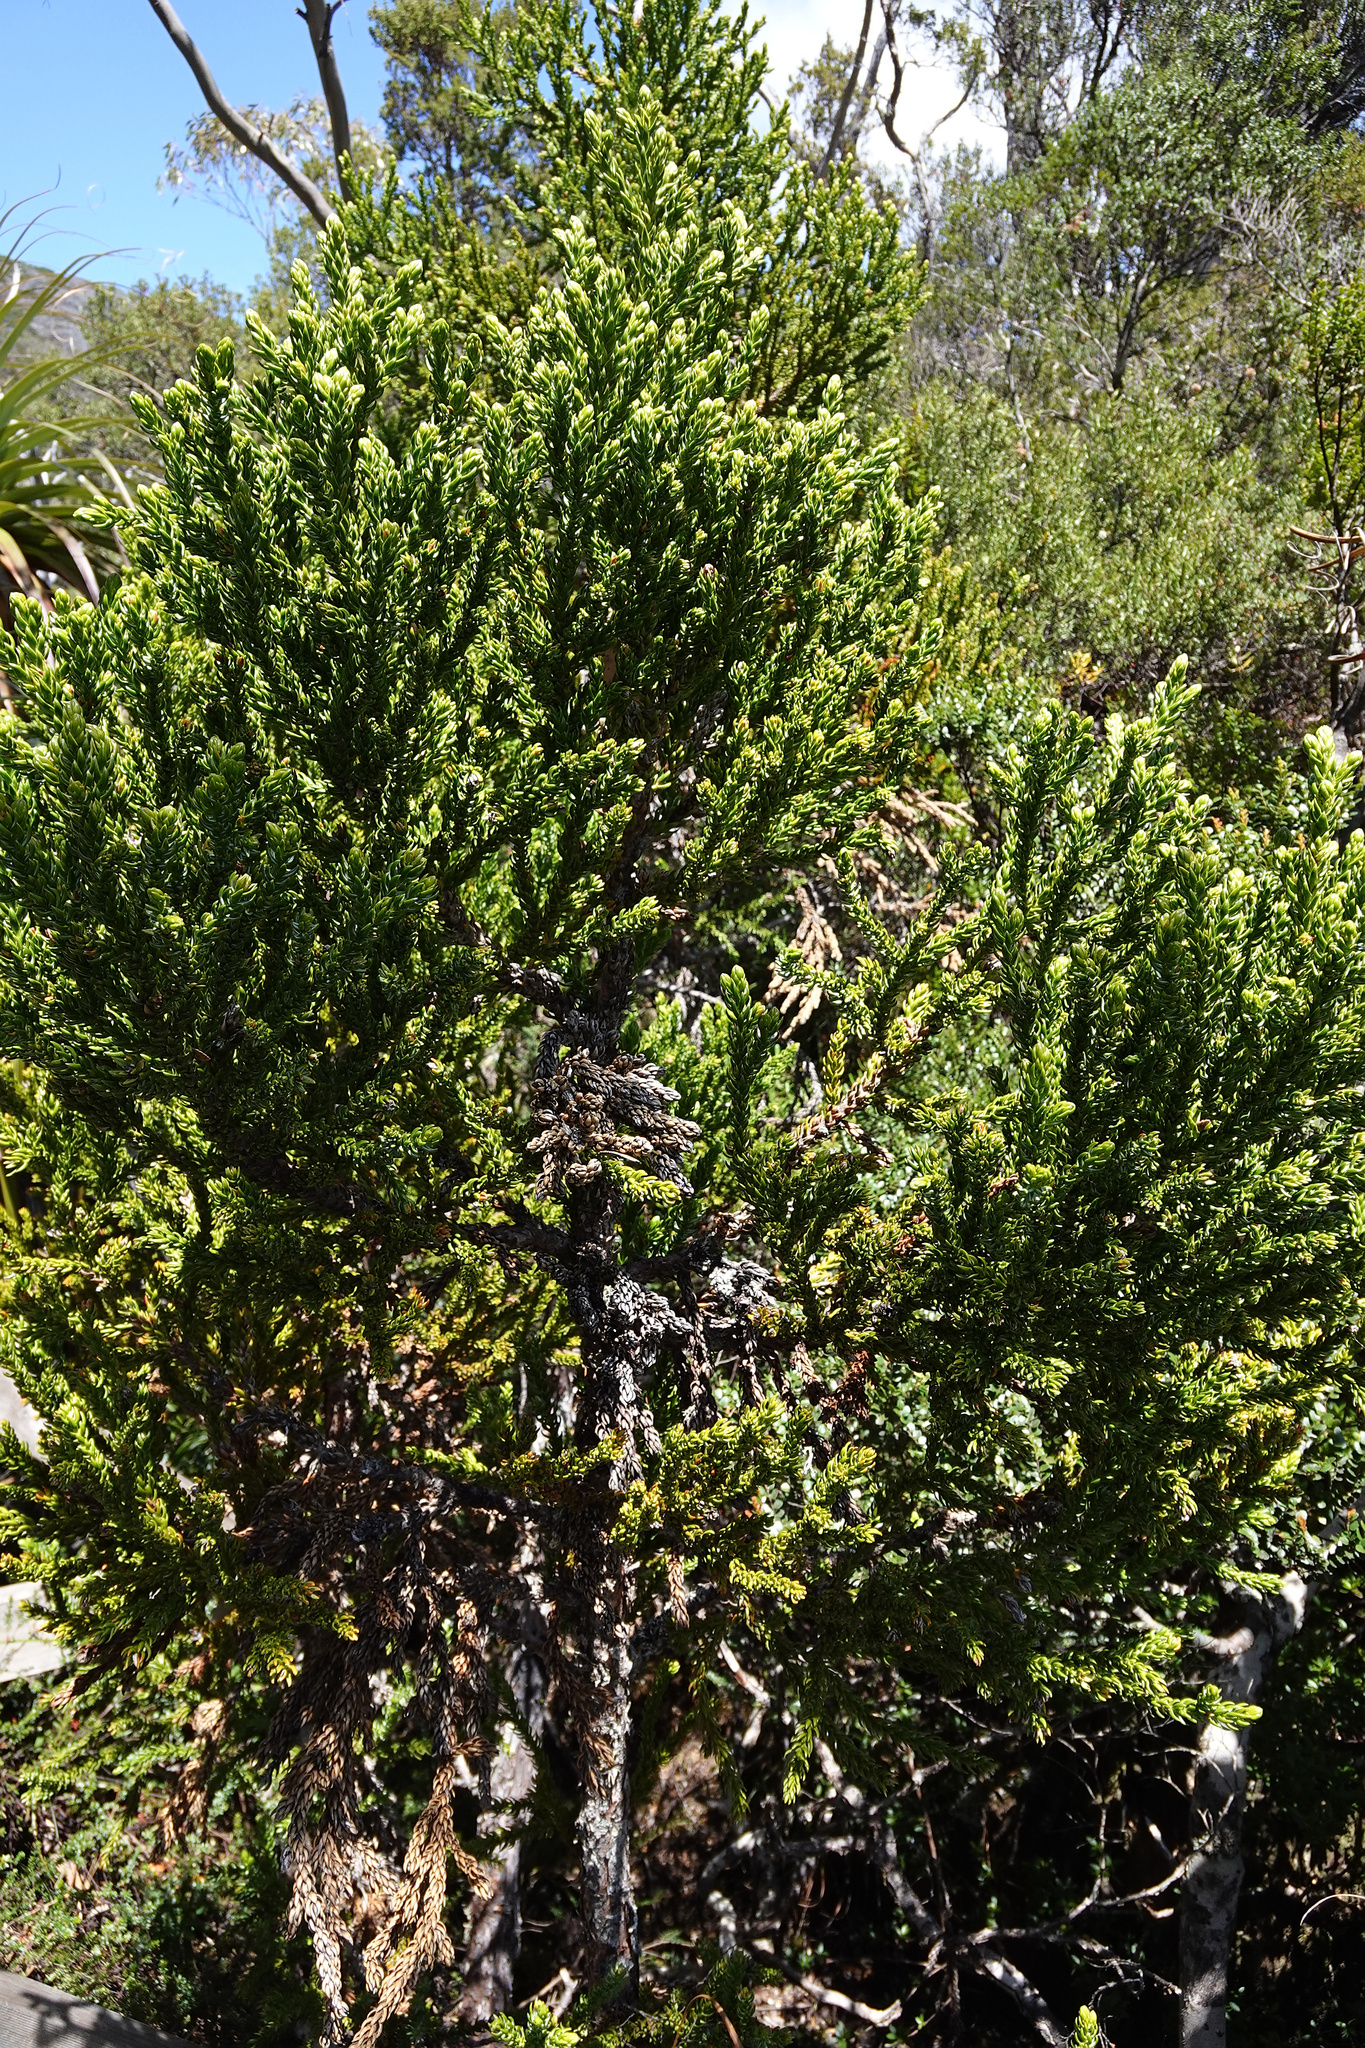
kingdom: Plantae
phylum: Tracheophyta
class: Pinopsida
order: Pinales
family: Cupressaceae
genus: Athrotaxis
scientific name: Athrotaxis selaginoides
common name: King william pine
